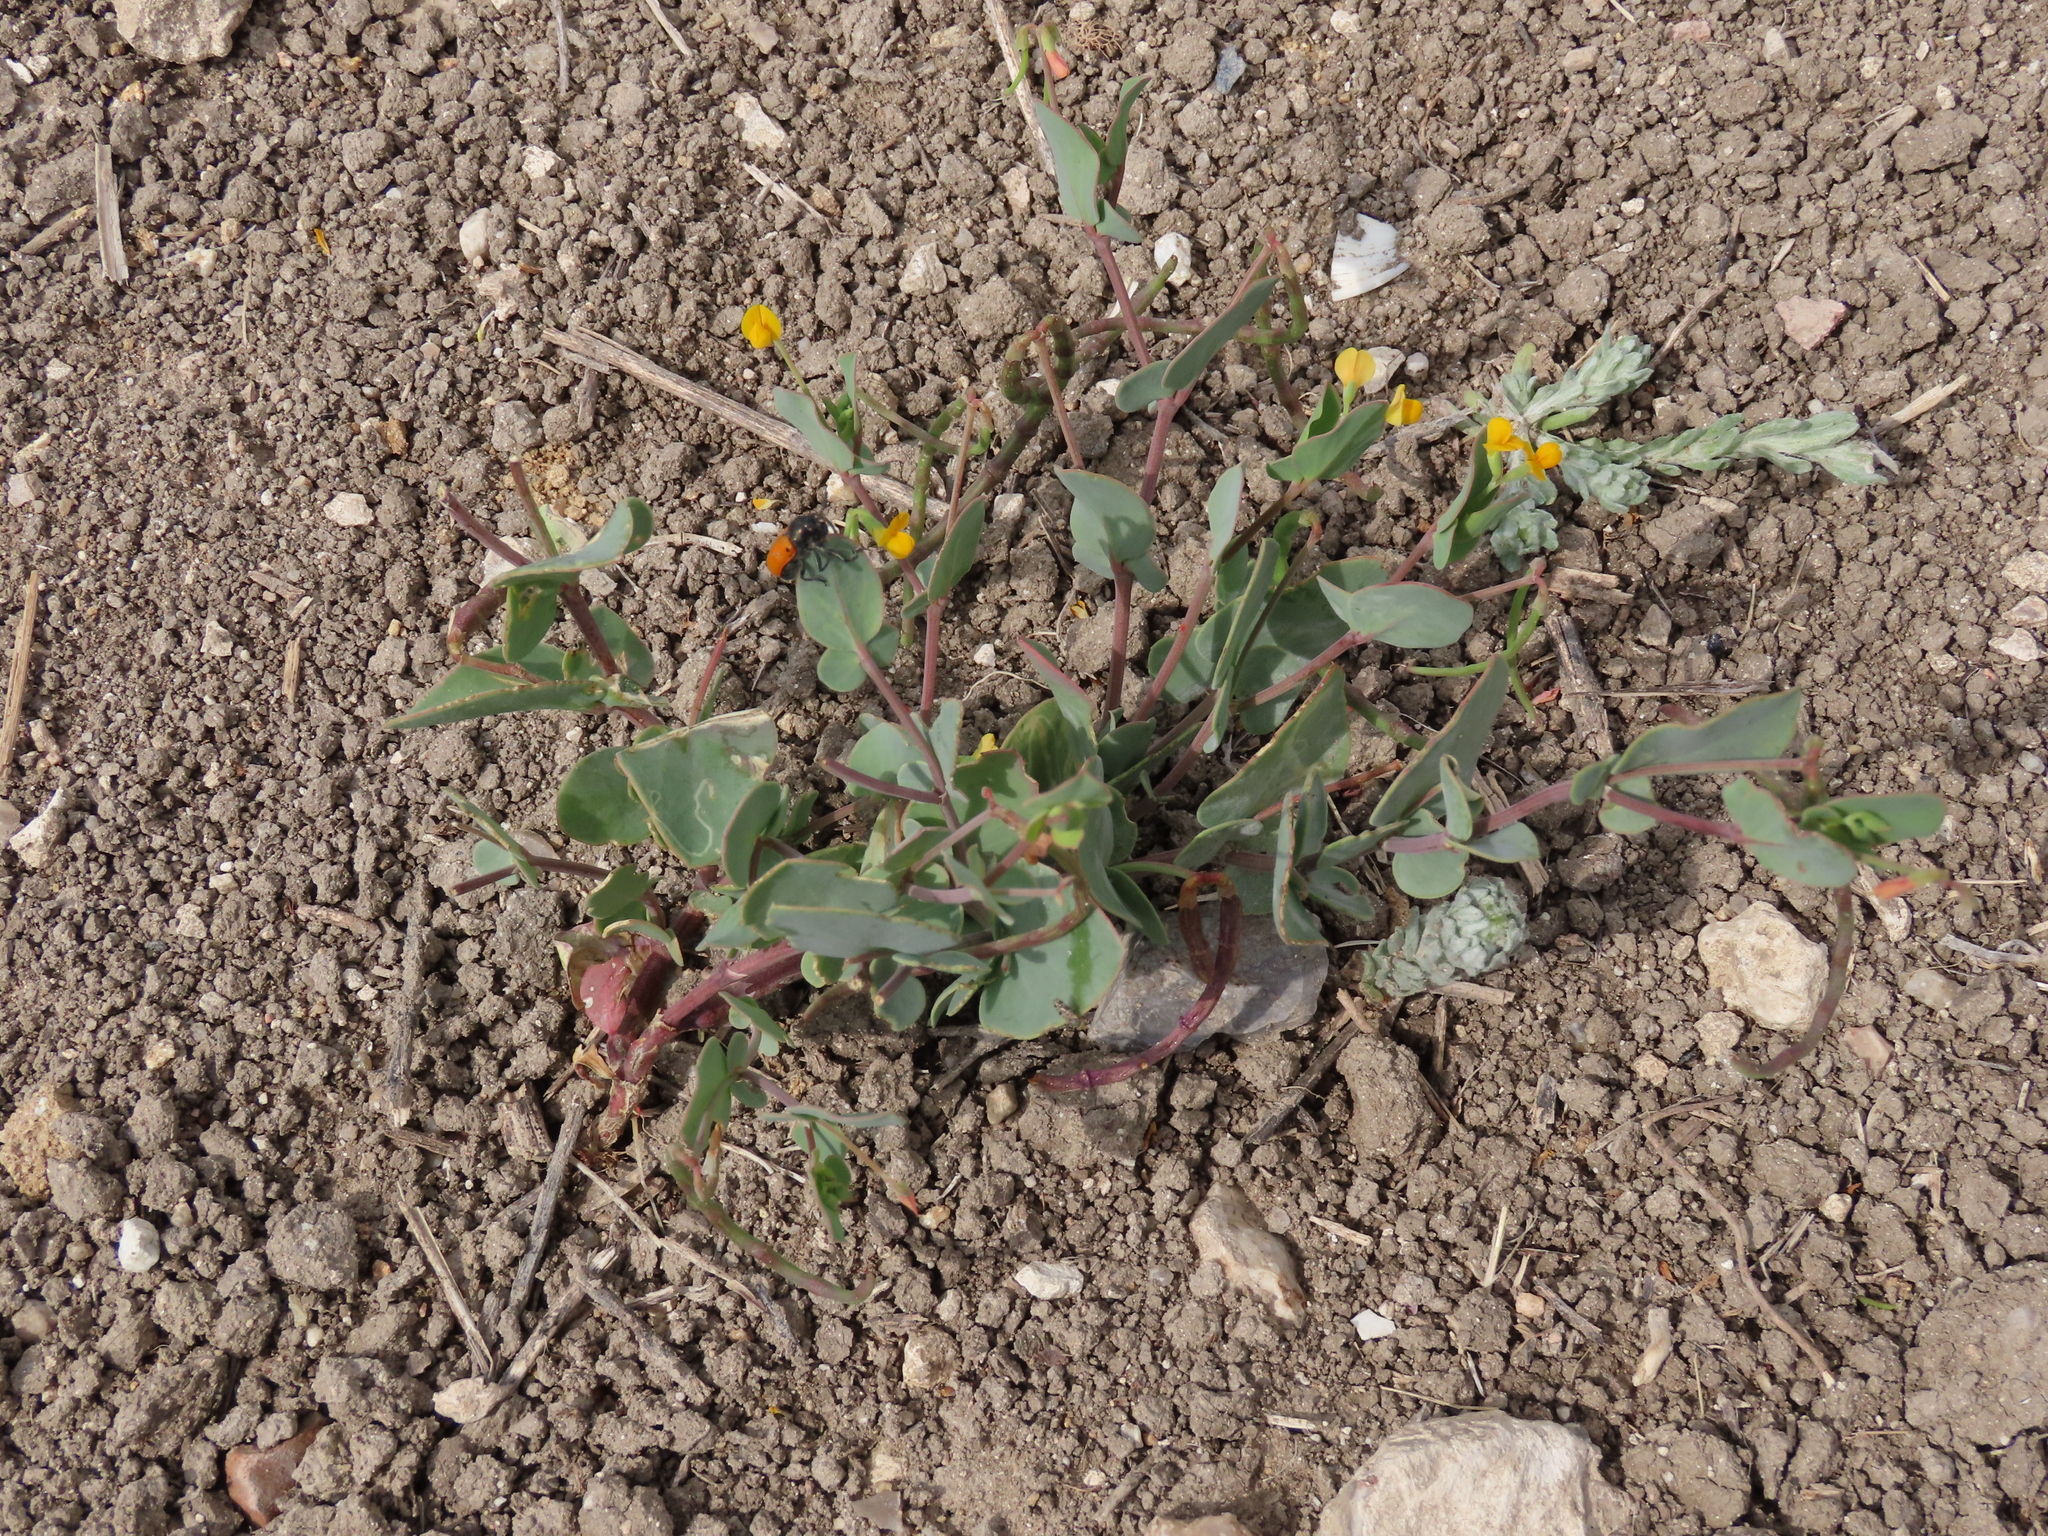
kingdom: Plantae
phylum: Tracheophyta
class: Magnoliopsida
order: Fabales
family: Fabaceae
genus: Coronilla
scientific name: Coronilla scorpioides
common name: Annual scorpion-vetch
